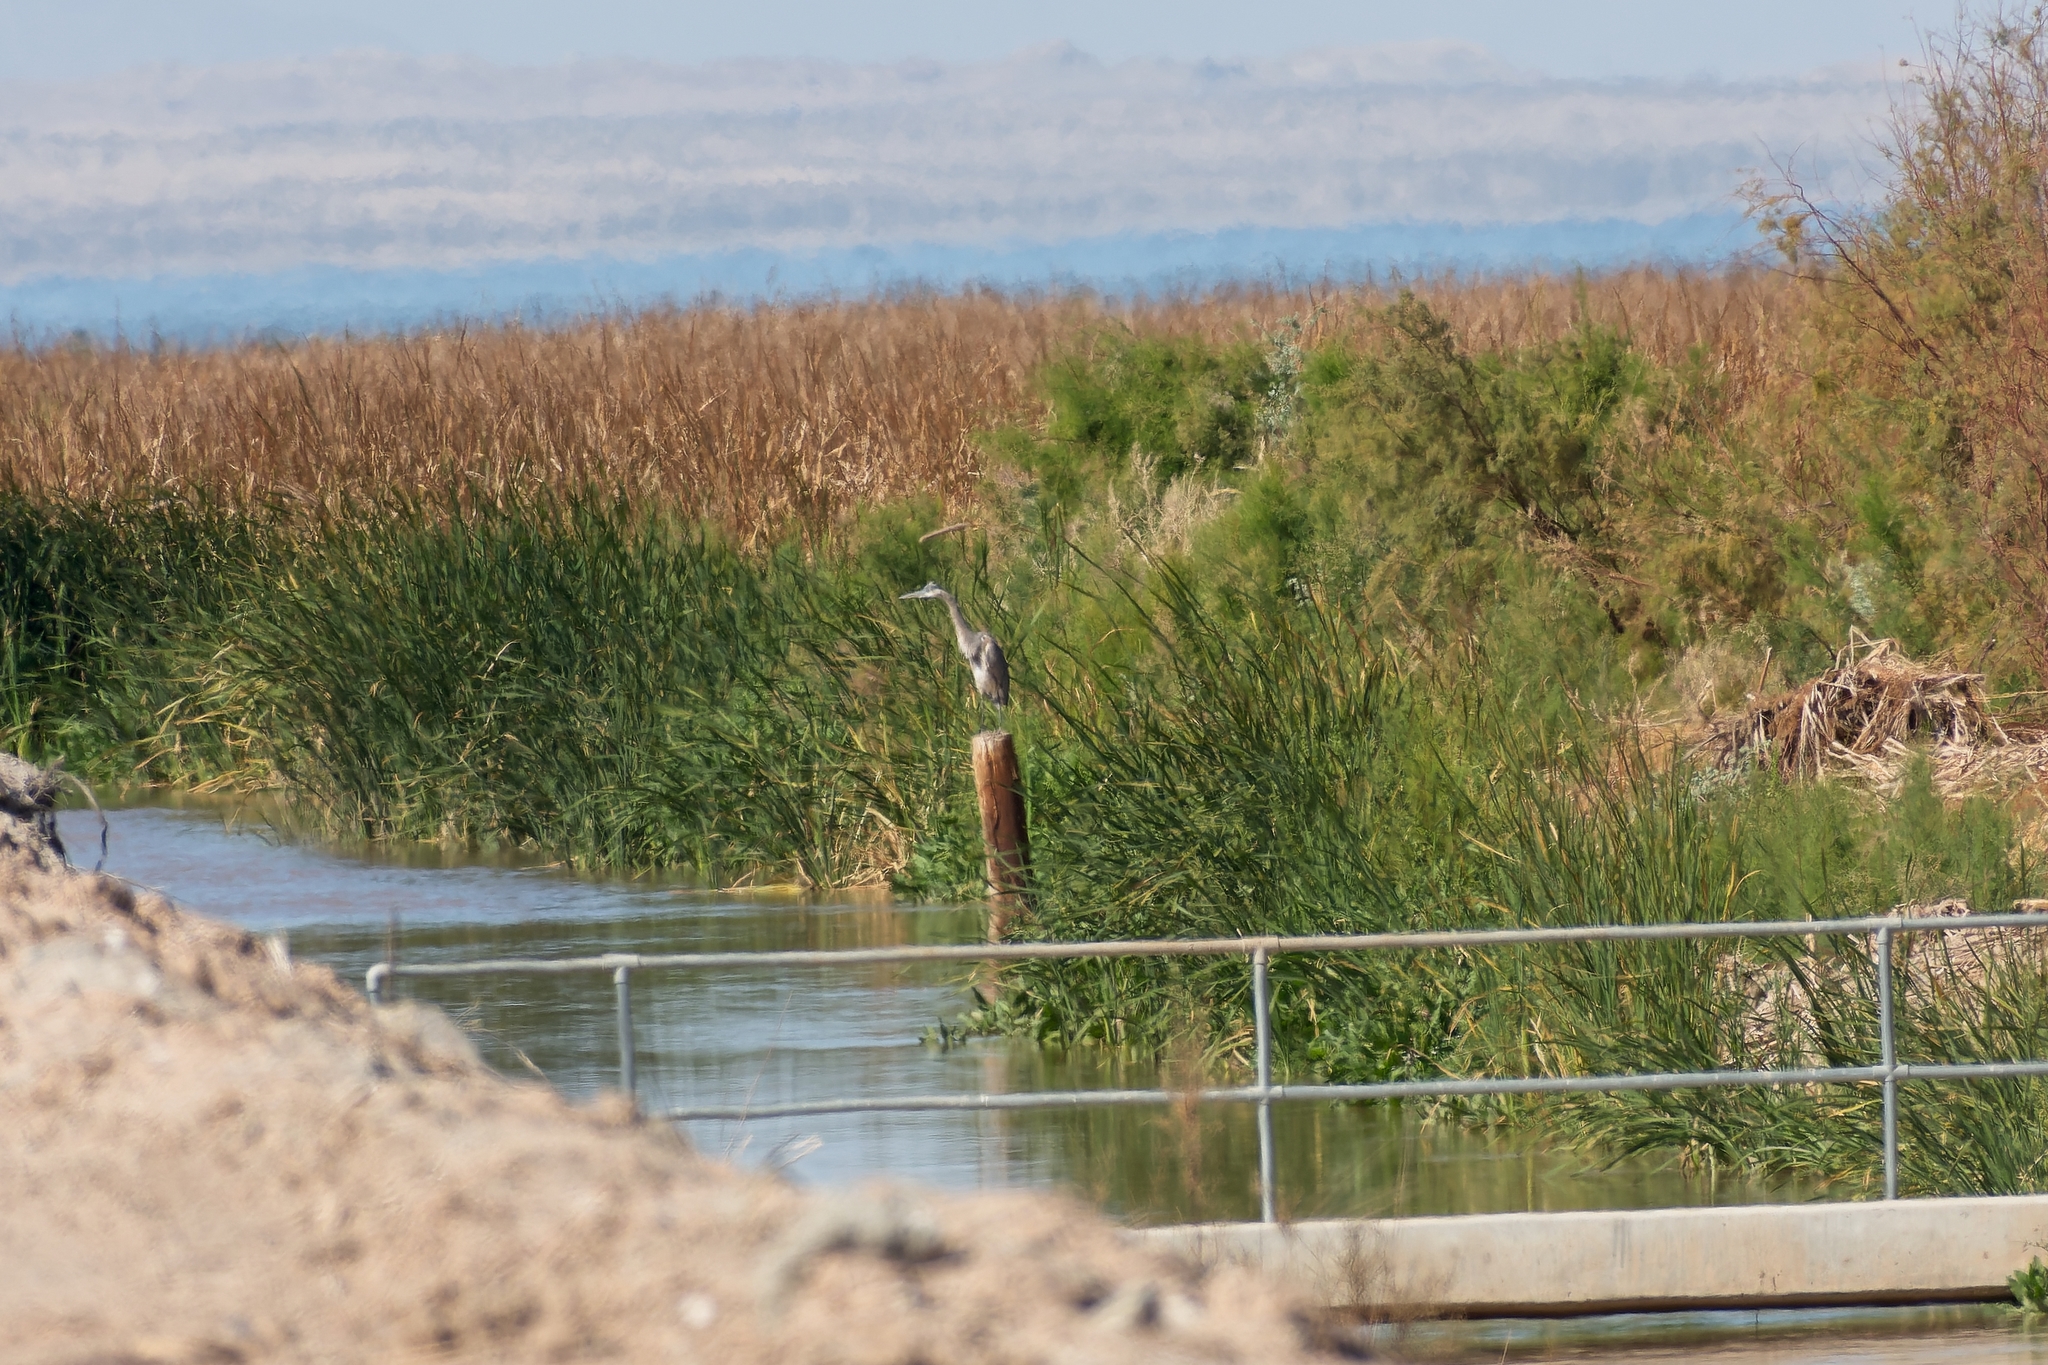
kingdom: Animalia
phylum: Chordata
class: Aves
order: Pelecaniformes
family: Ardeidae
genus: Ardea
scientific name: Ardea herodias
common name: Great blue heron
